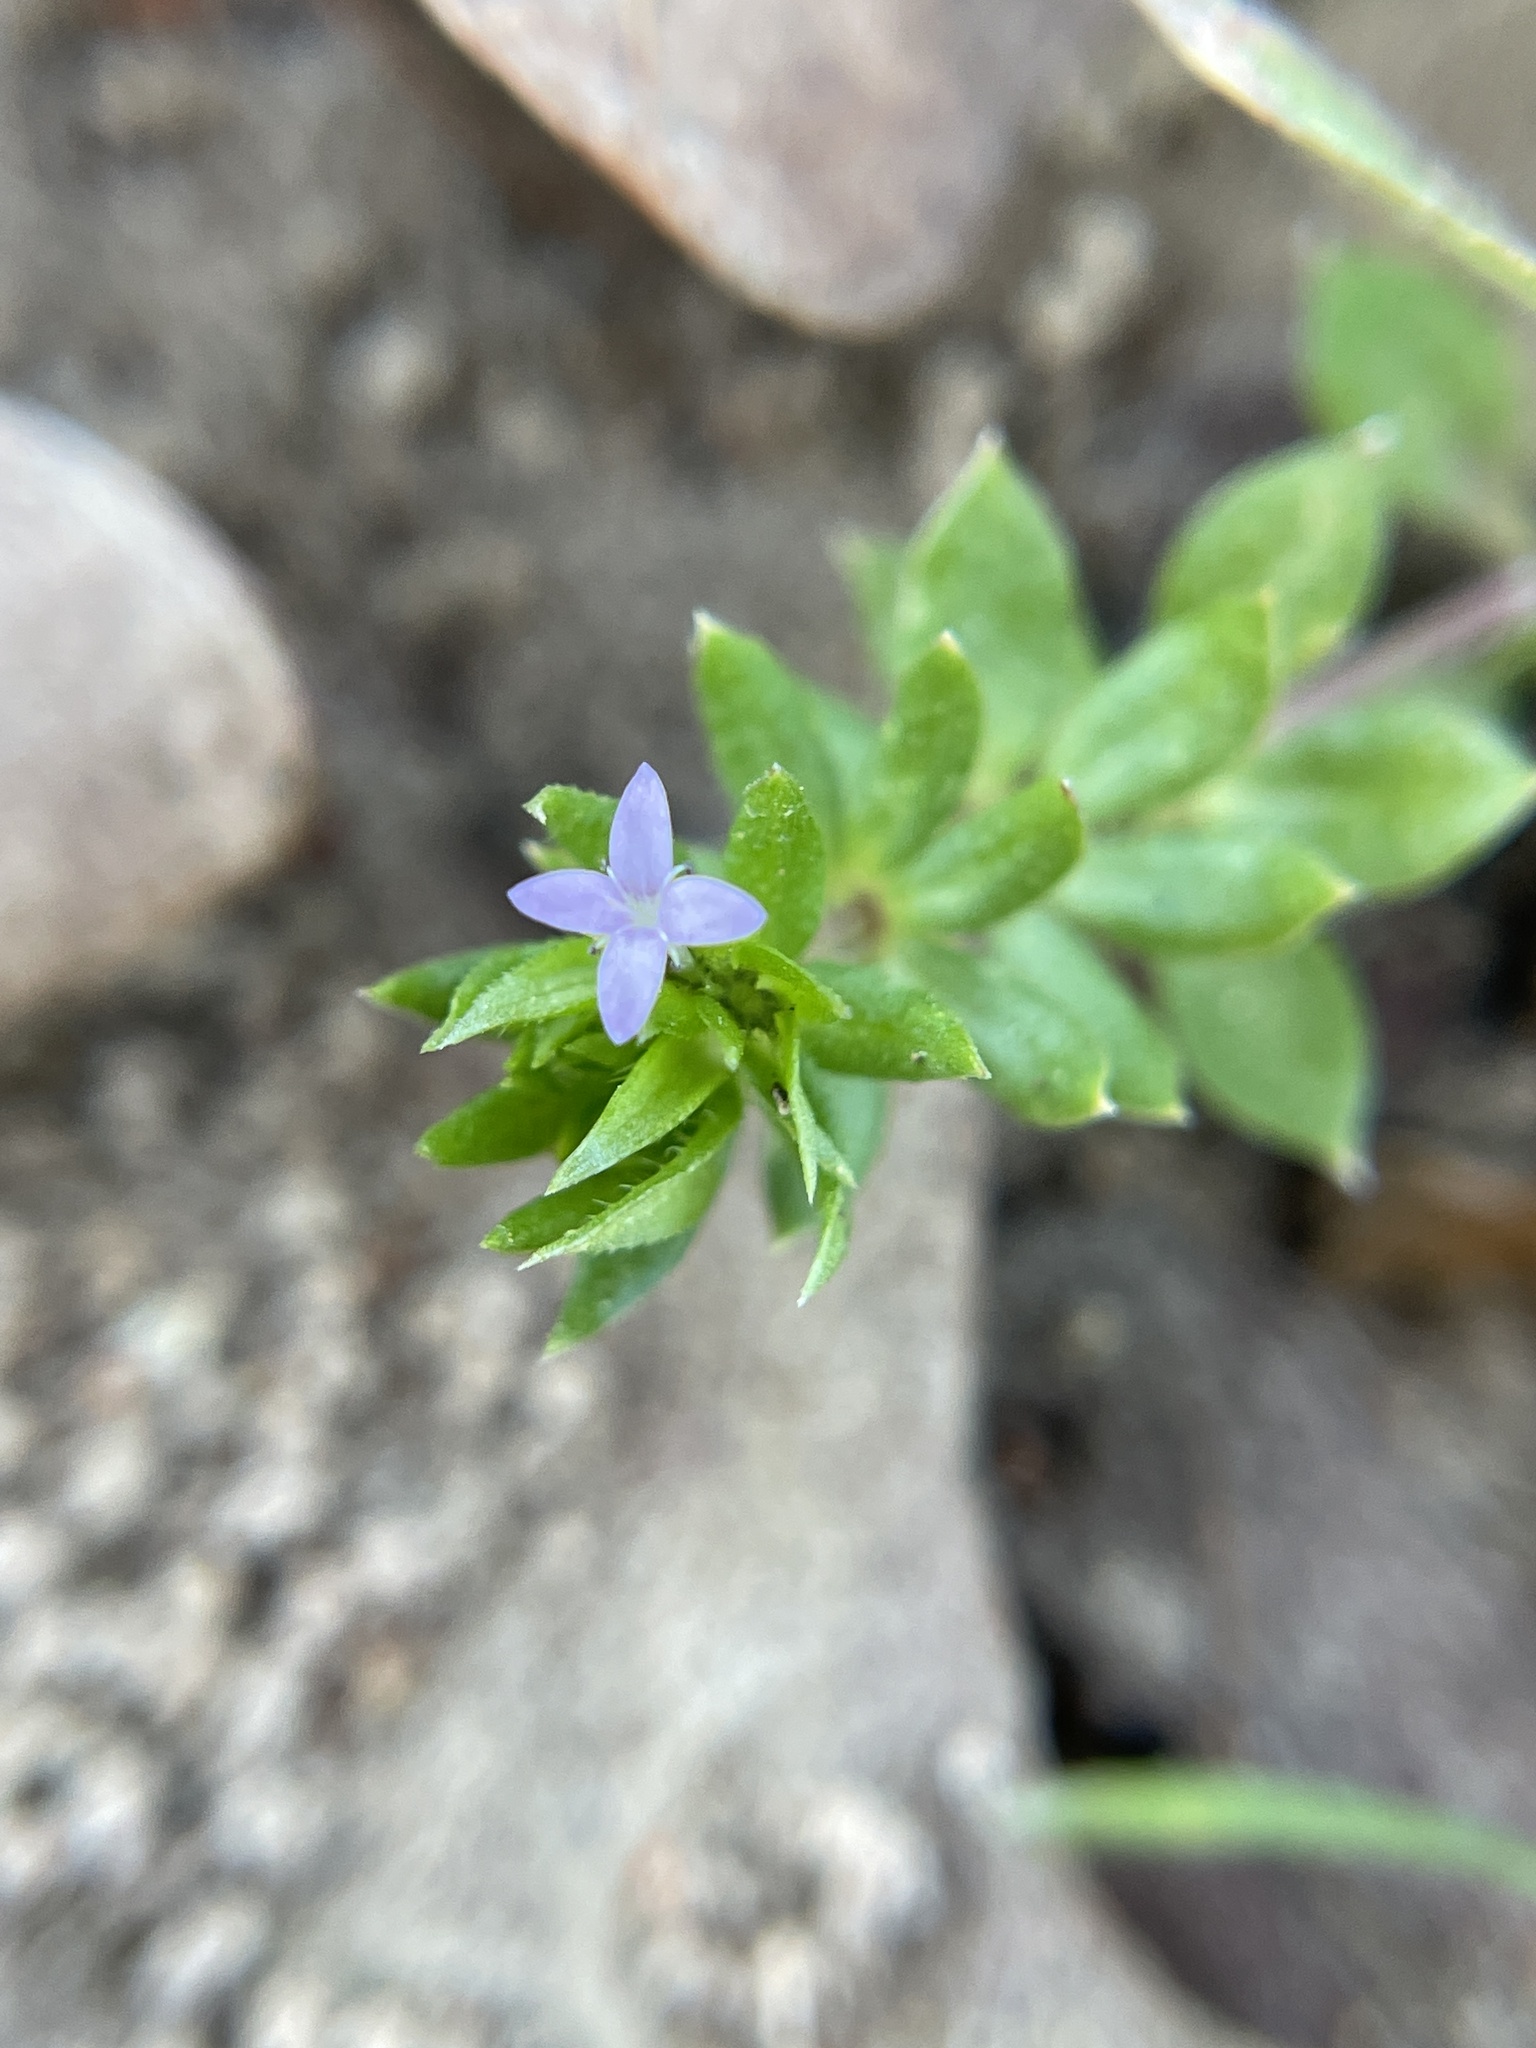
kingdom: Plantae
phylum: Tracheophyta
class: Magnoliopsida
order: Gentianales
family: Rubiaceae
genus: Sherardia
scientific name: Sherardia arvensis
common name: Field madder
